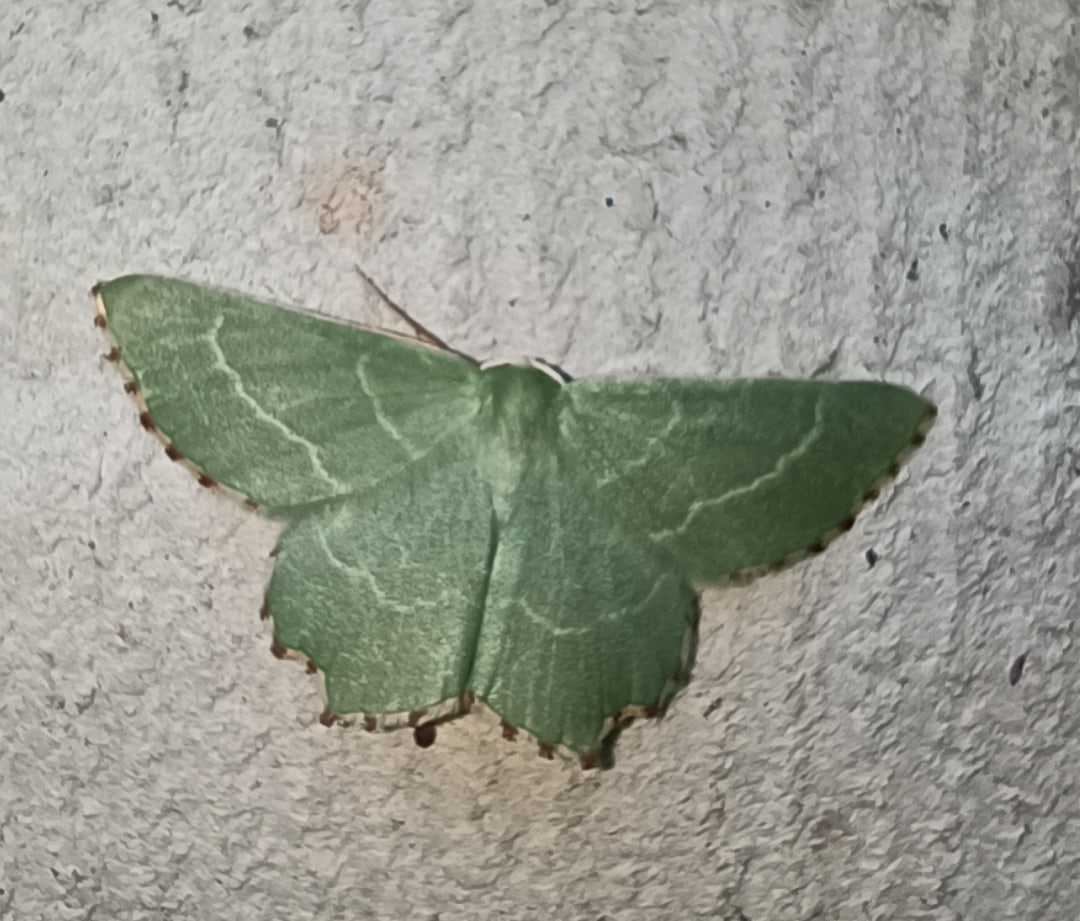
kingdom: Animalia
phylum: Arthropoda
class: Insecta
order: Lepidoptera
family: Geometridae
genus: Thalera
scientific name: Thalera fimbrialis
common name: Sussex emerald
